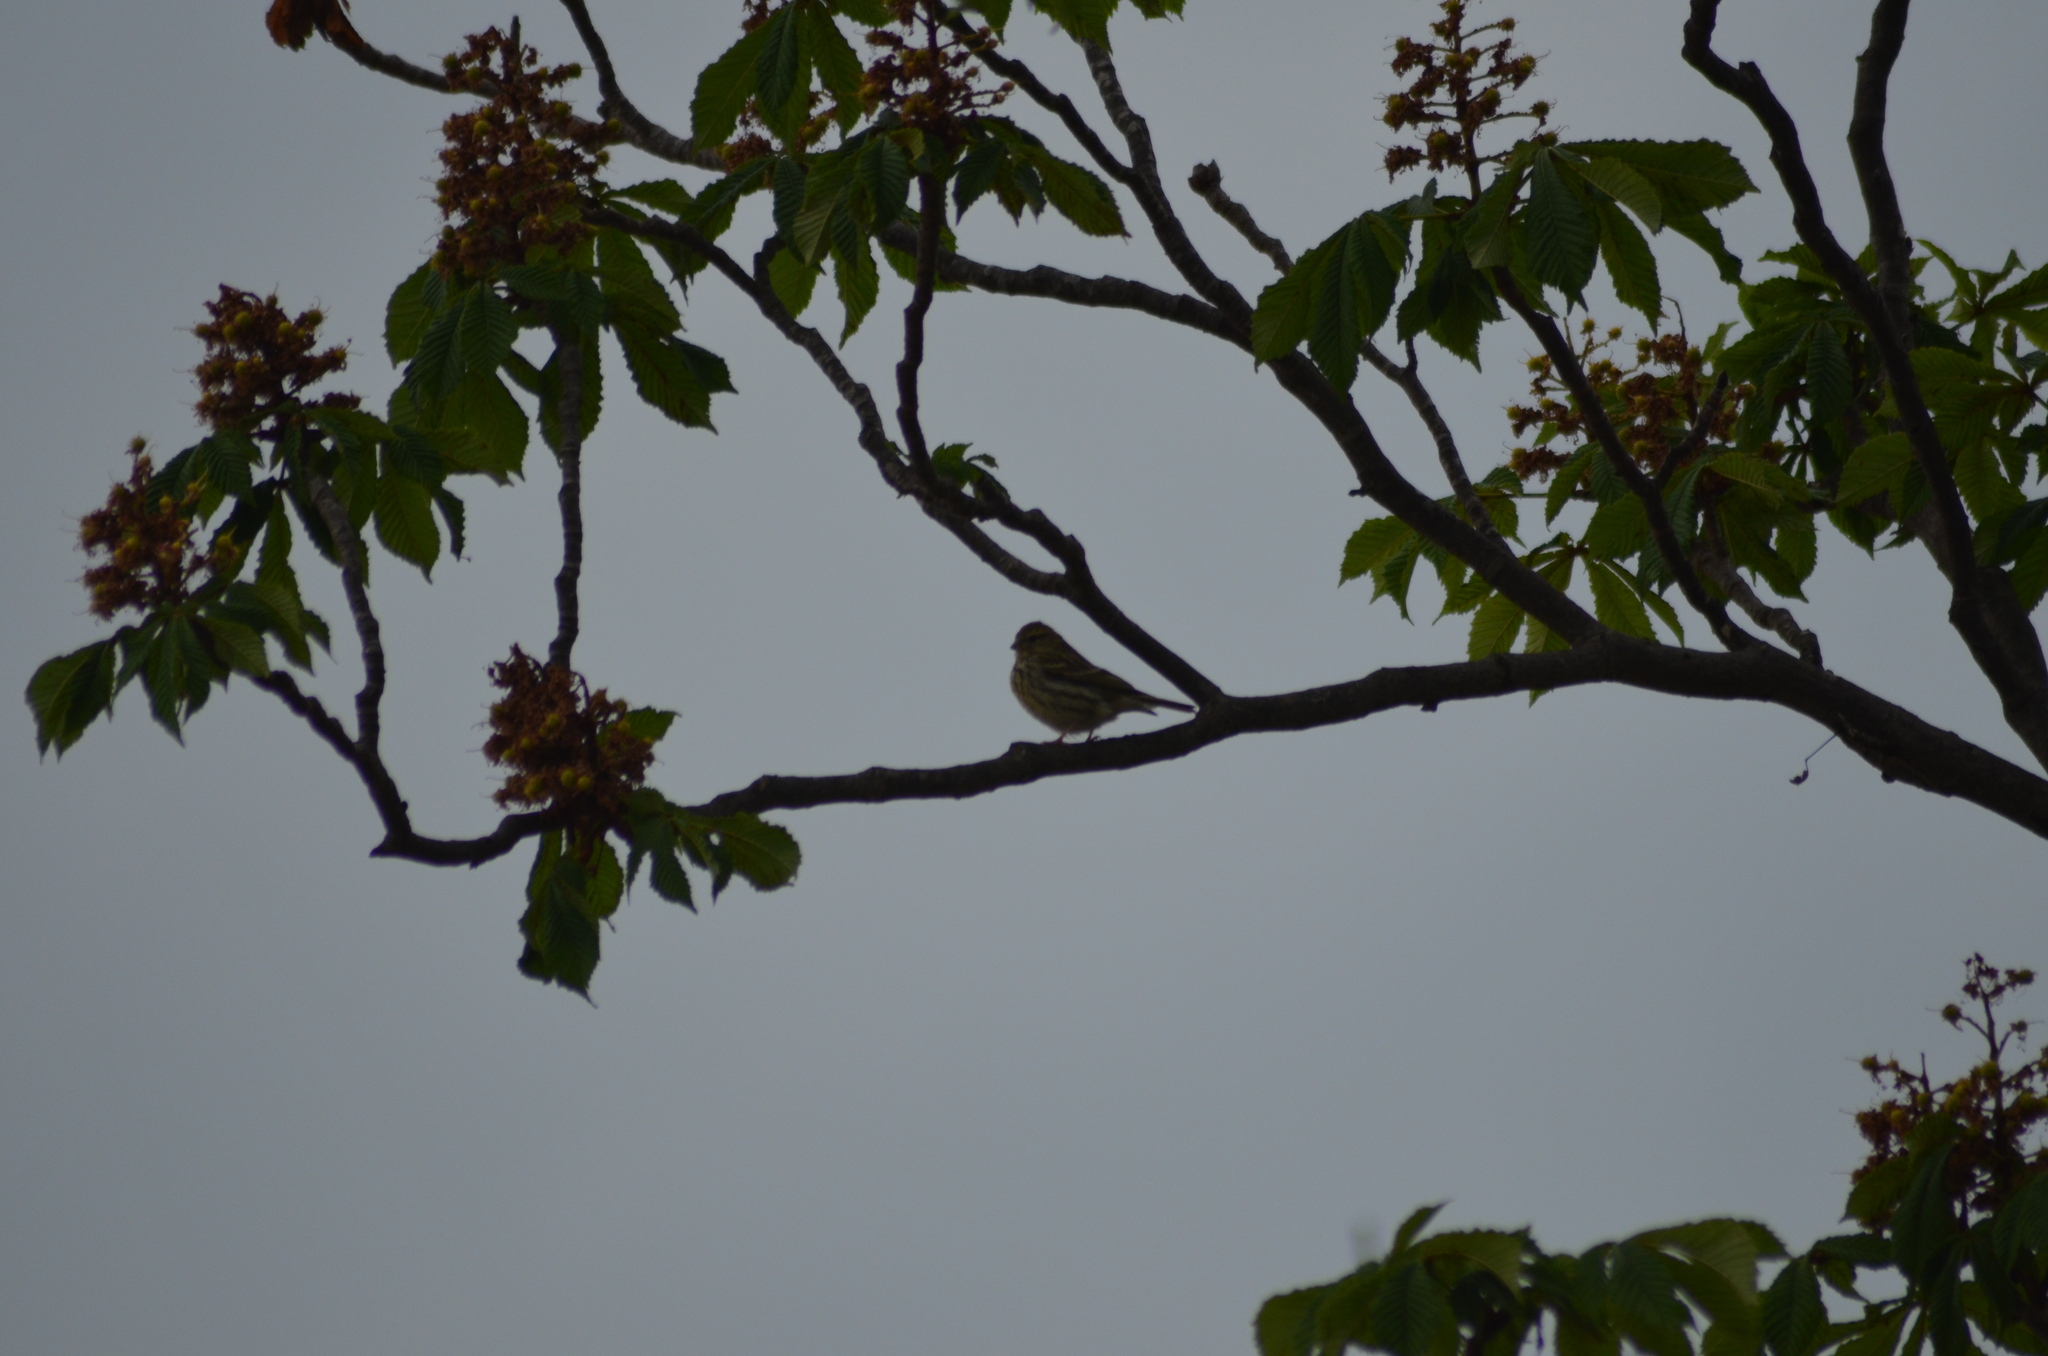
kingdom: Animalia
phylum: Chordata
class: Aves
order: Passeriformes
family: Fringillidae
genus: Serinus
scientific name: Serinus serinus
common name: European serin
